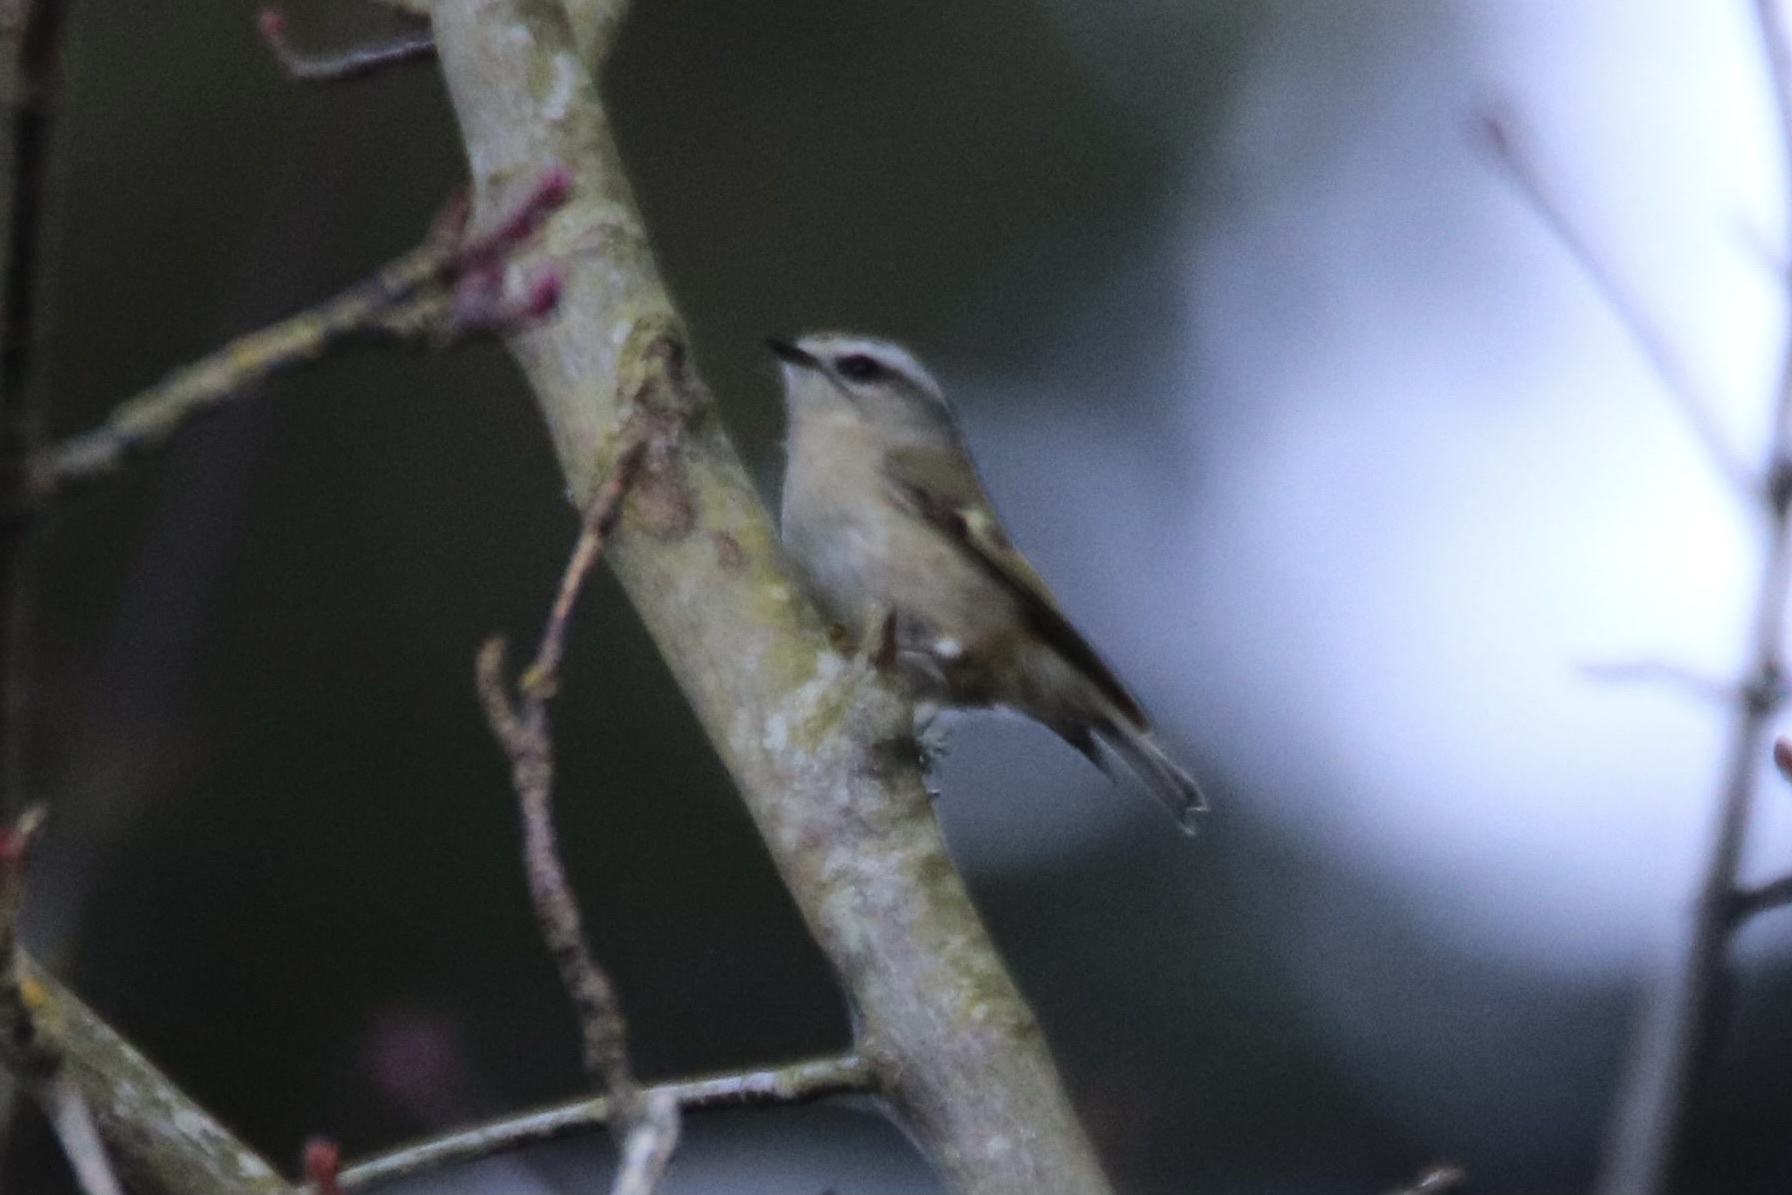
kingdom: Animalia
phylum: Chordata
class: Aves
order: Passeriformes
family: Regulidae
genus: Regulus
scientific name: Regulus satrapa
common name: Golden-crowned kinglet
